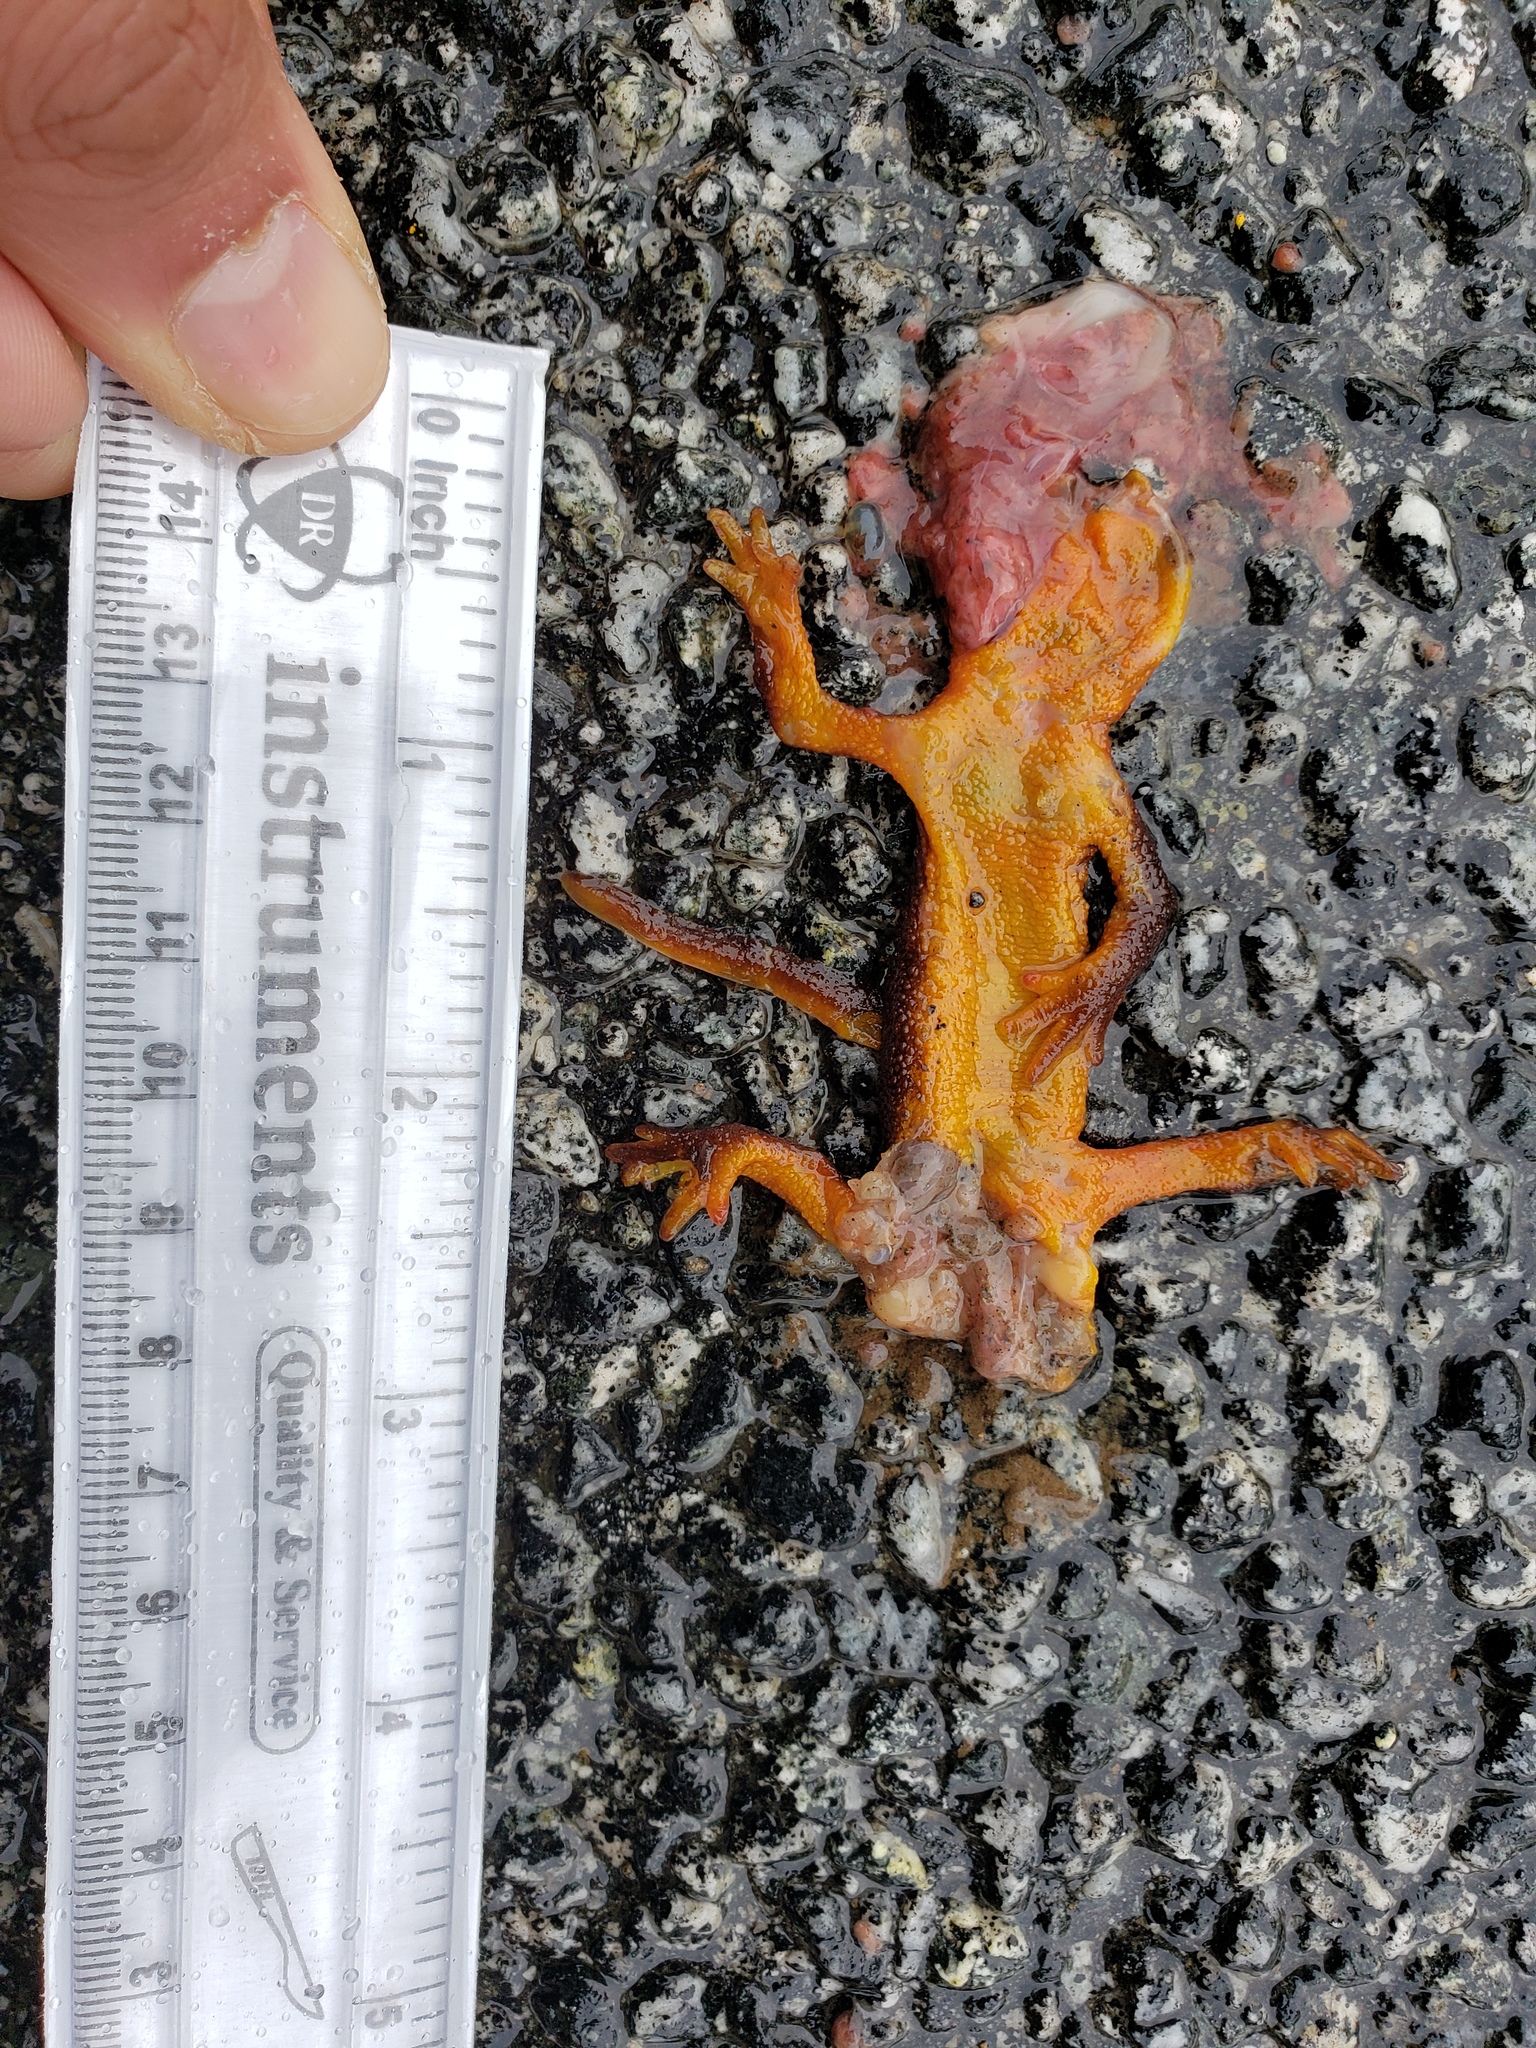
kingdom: Animalia
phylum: Chordata
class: Amphibia
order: Caudata
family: Salamandridae
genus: Taricha
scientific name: Taricha
